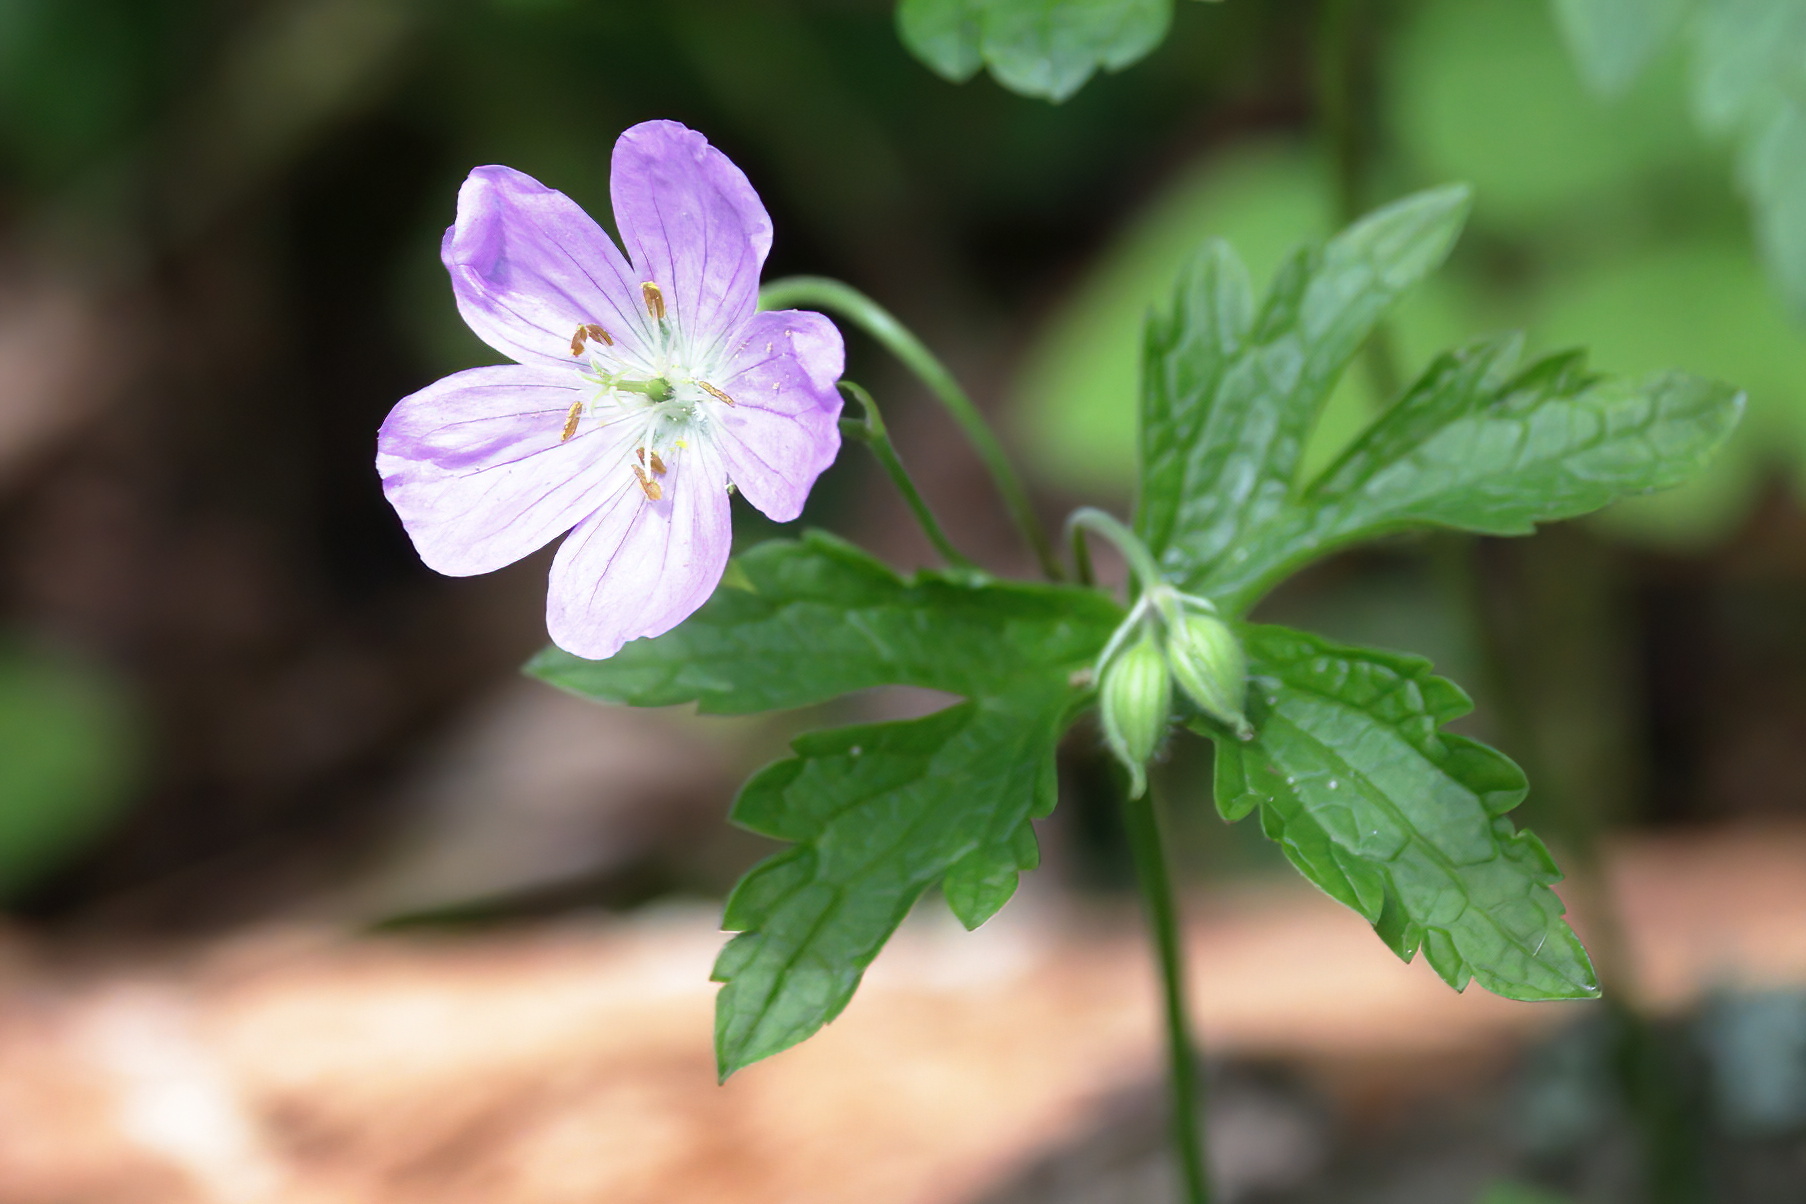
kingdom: Plantae
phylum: Tracheophyta
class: Magnoliopsida
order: Geraniales
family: Geraniaceae
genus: Geranium
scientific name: Geranium maculatum
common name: Spotted geranium
